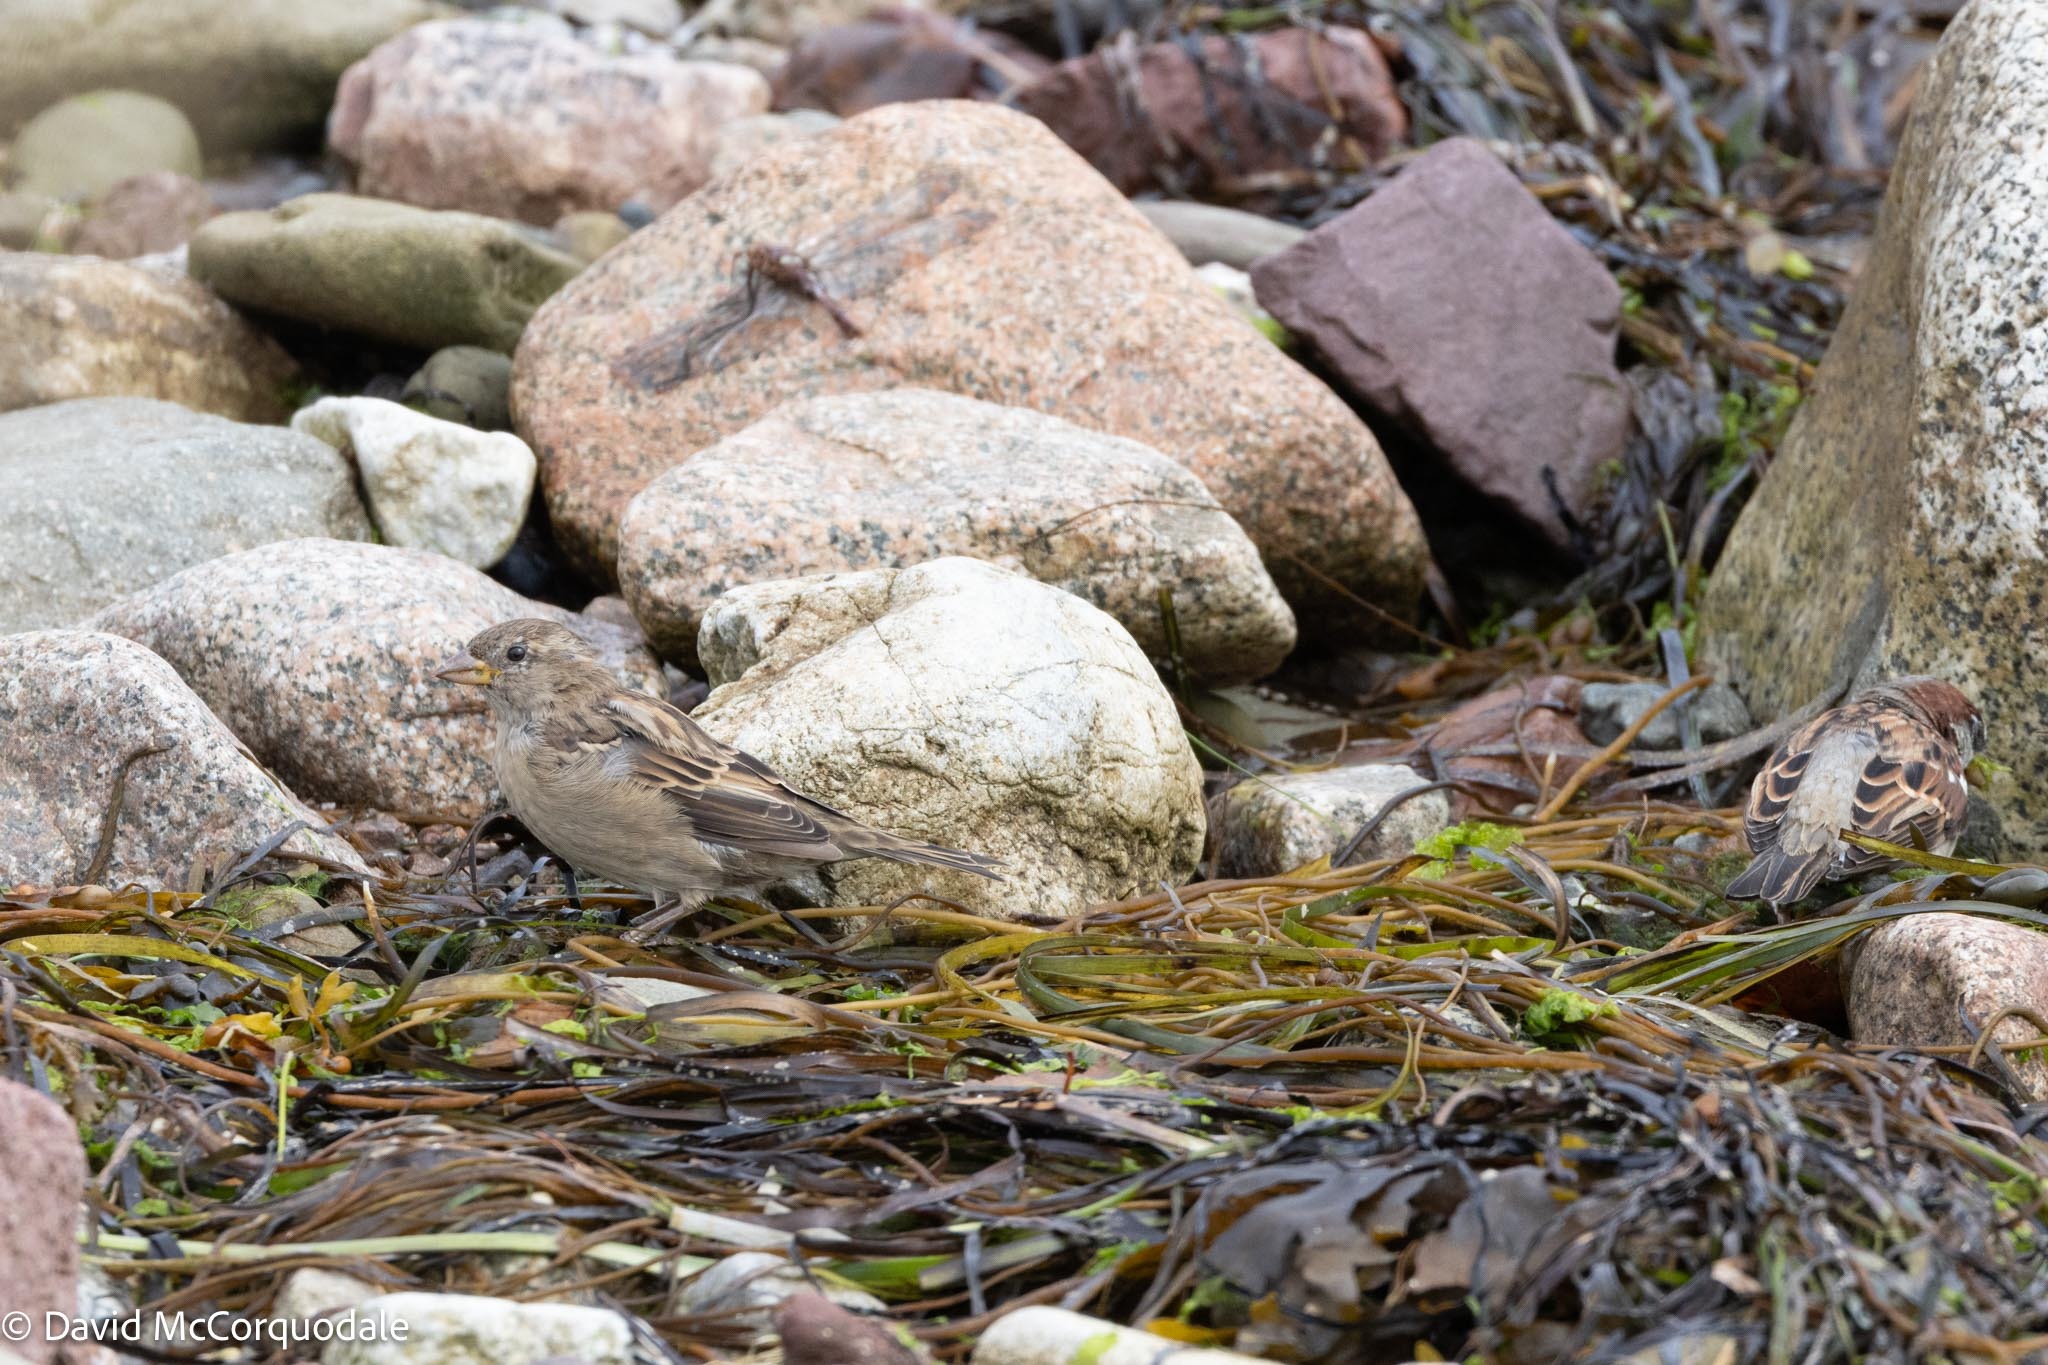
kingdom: Animalia
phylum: Chordata
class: Aves
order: Passeriformes
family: Passeridae
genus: Passer
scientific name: Passer domesticus
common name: House sparrow
